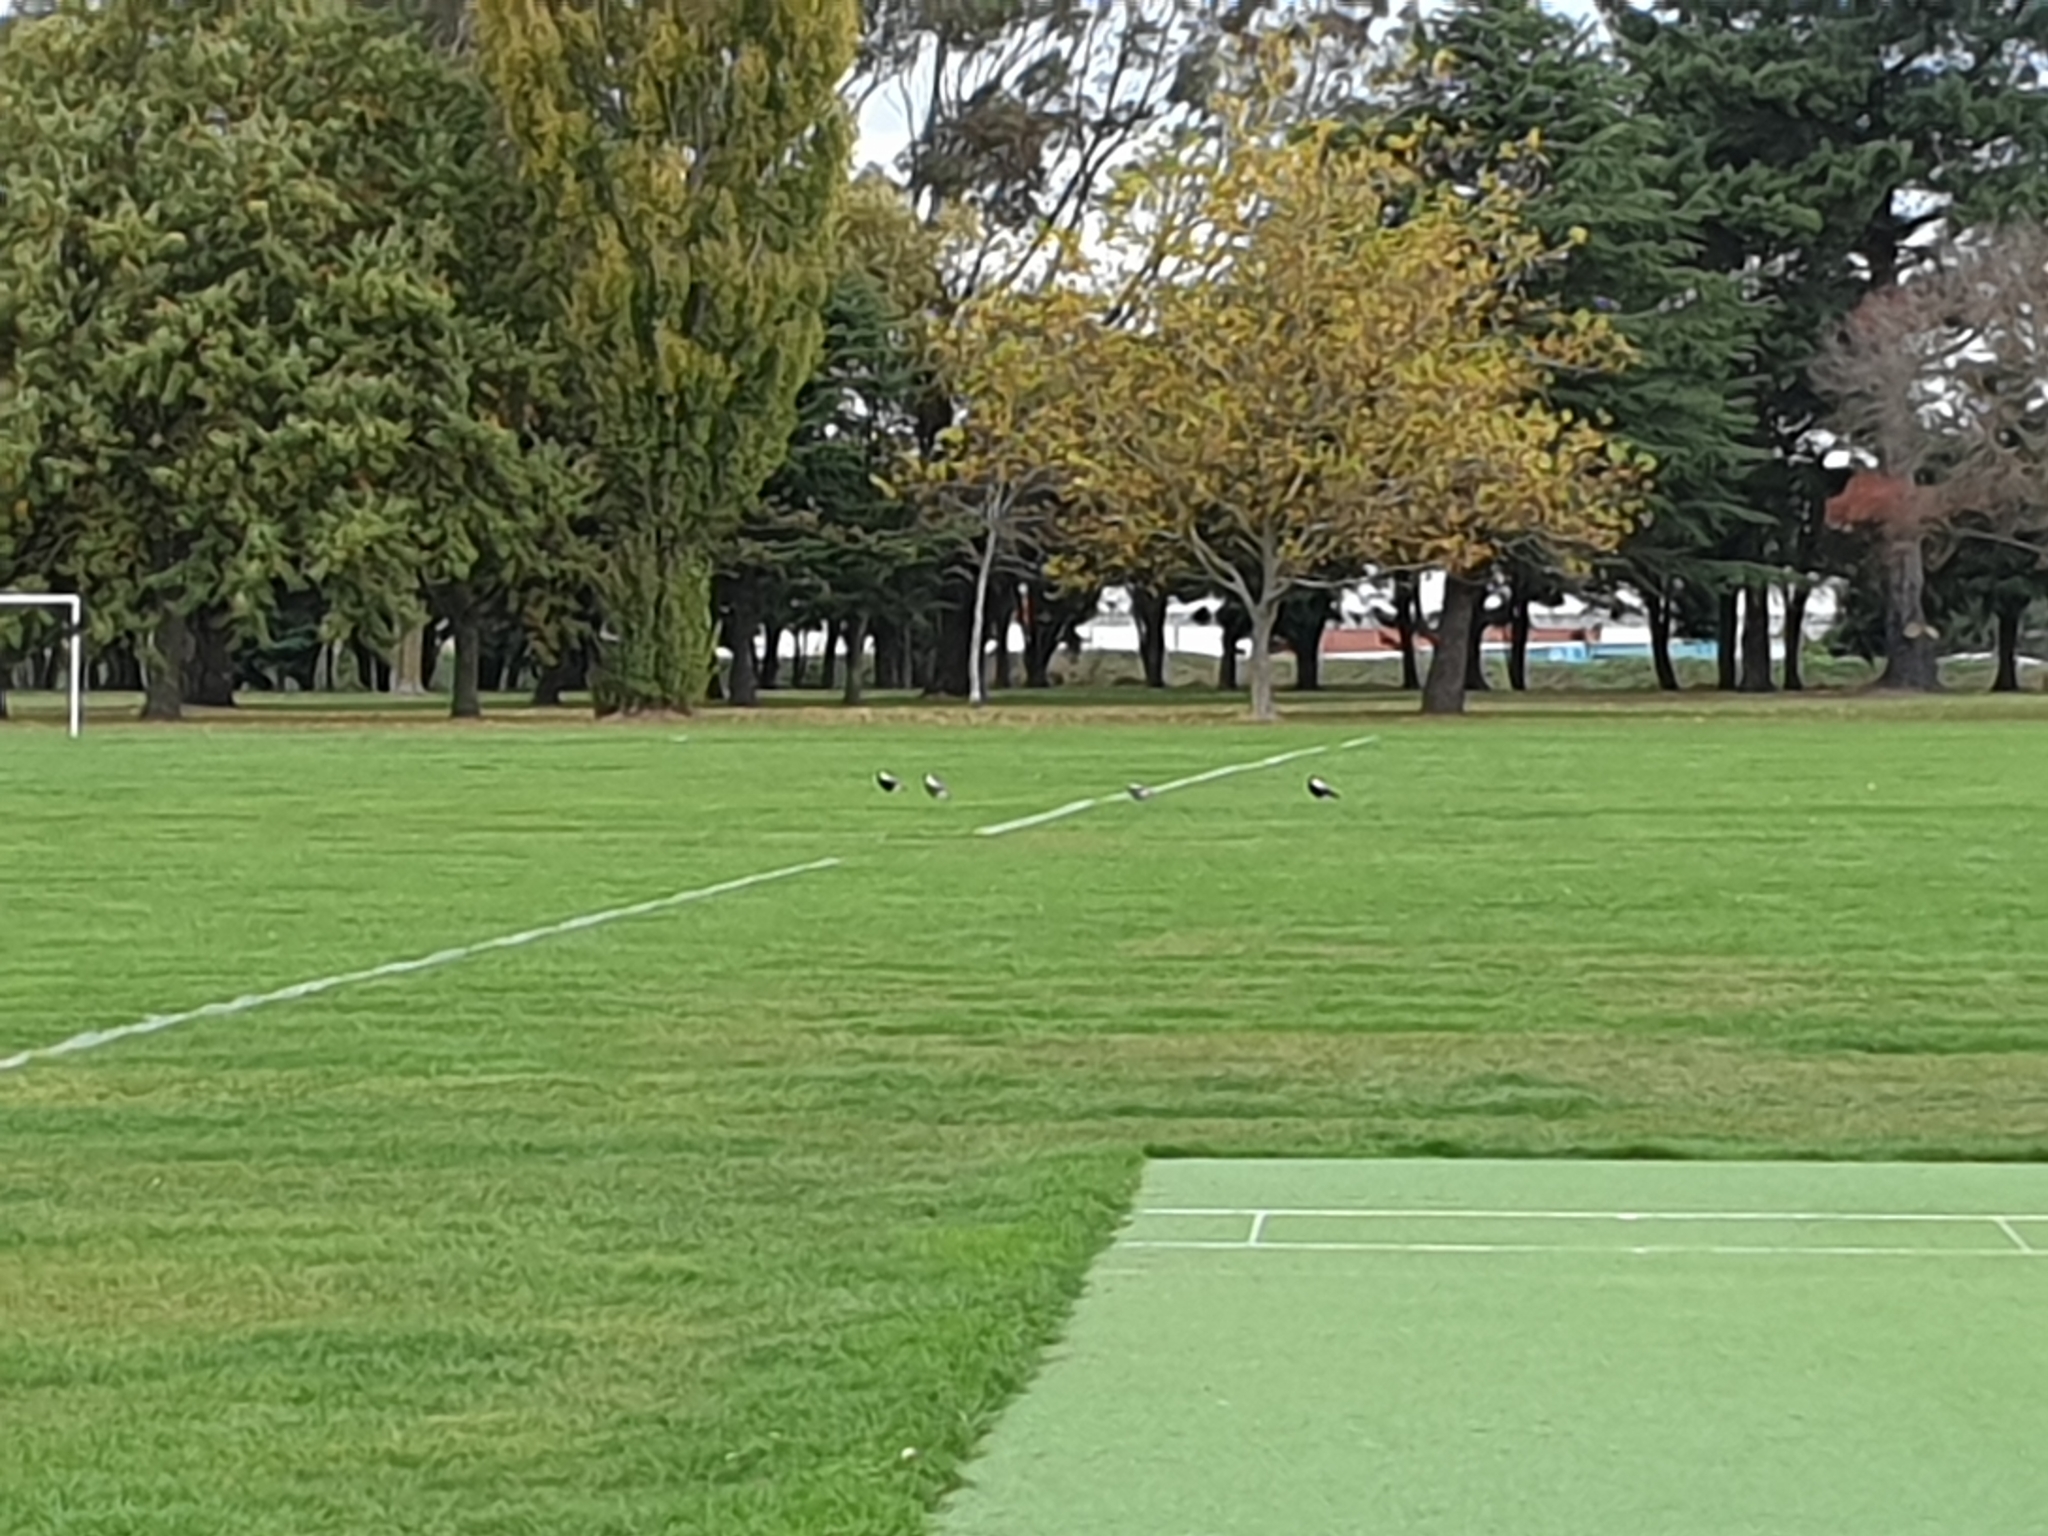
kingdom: Animalia
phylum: Chordata
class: Aves
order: Passeriformes
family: Cracticidae
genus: Gymnorhina
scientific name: Gymnorhina tibicen
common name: Australian magpie
